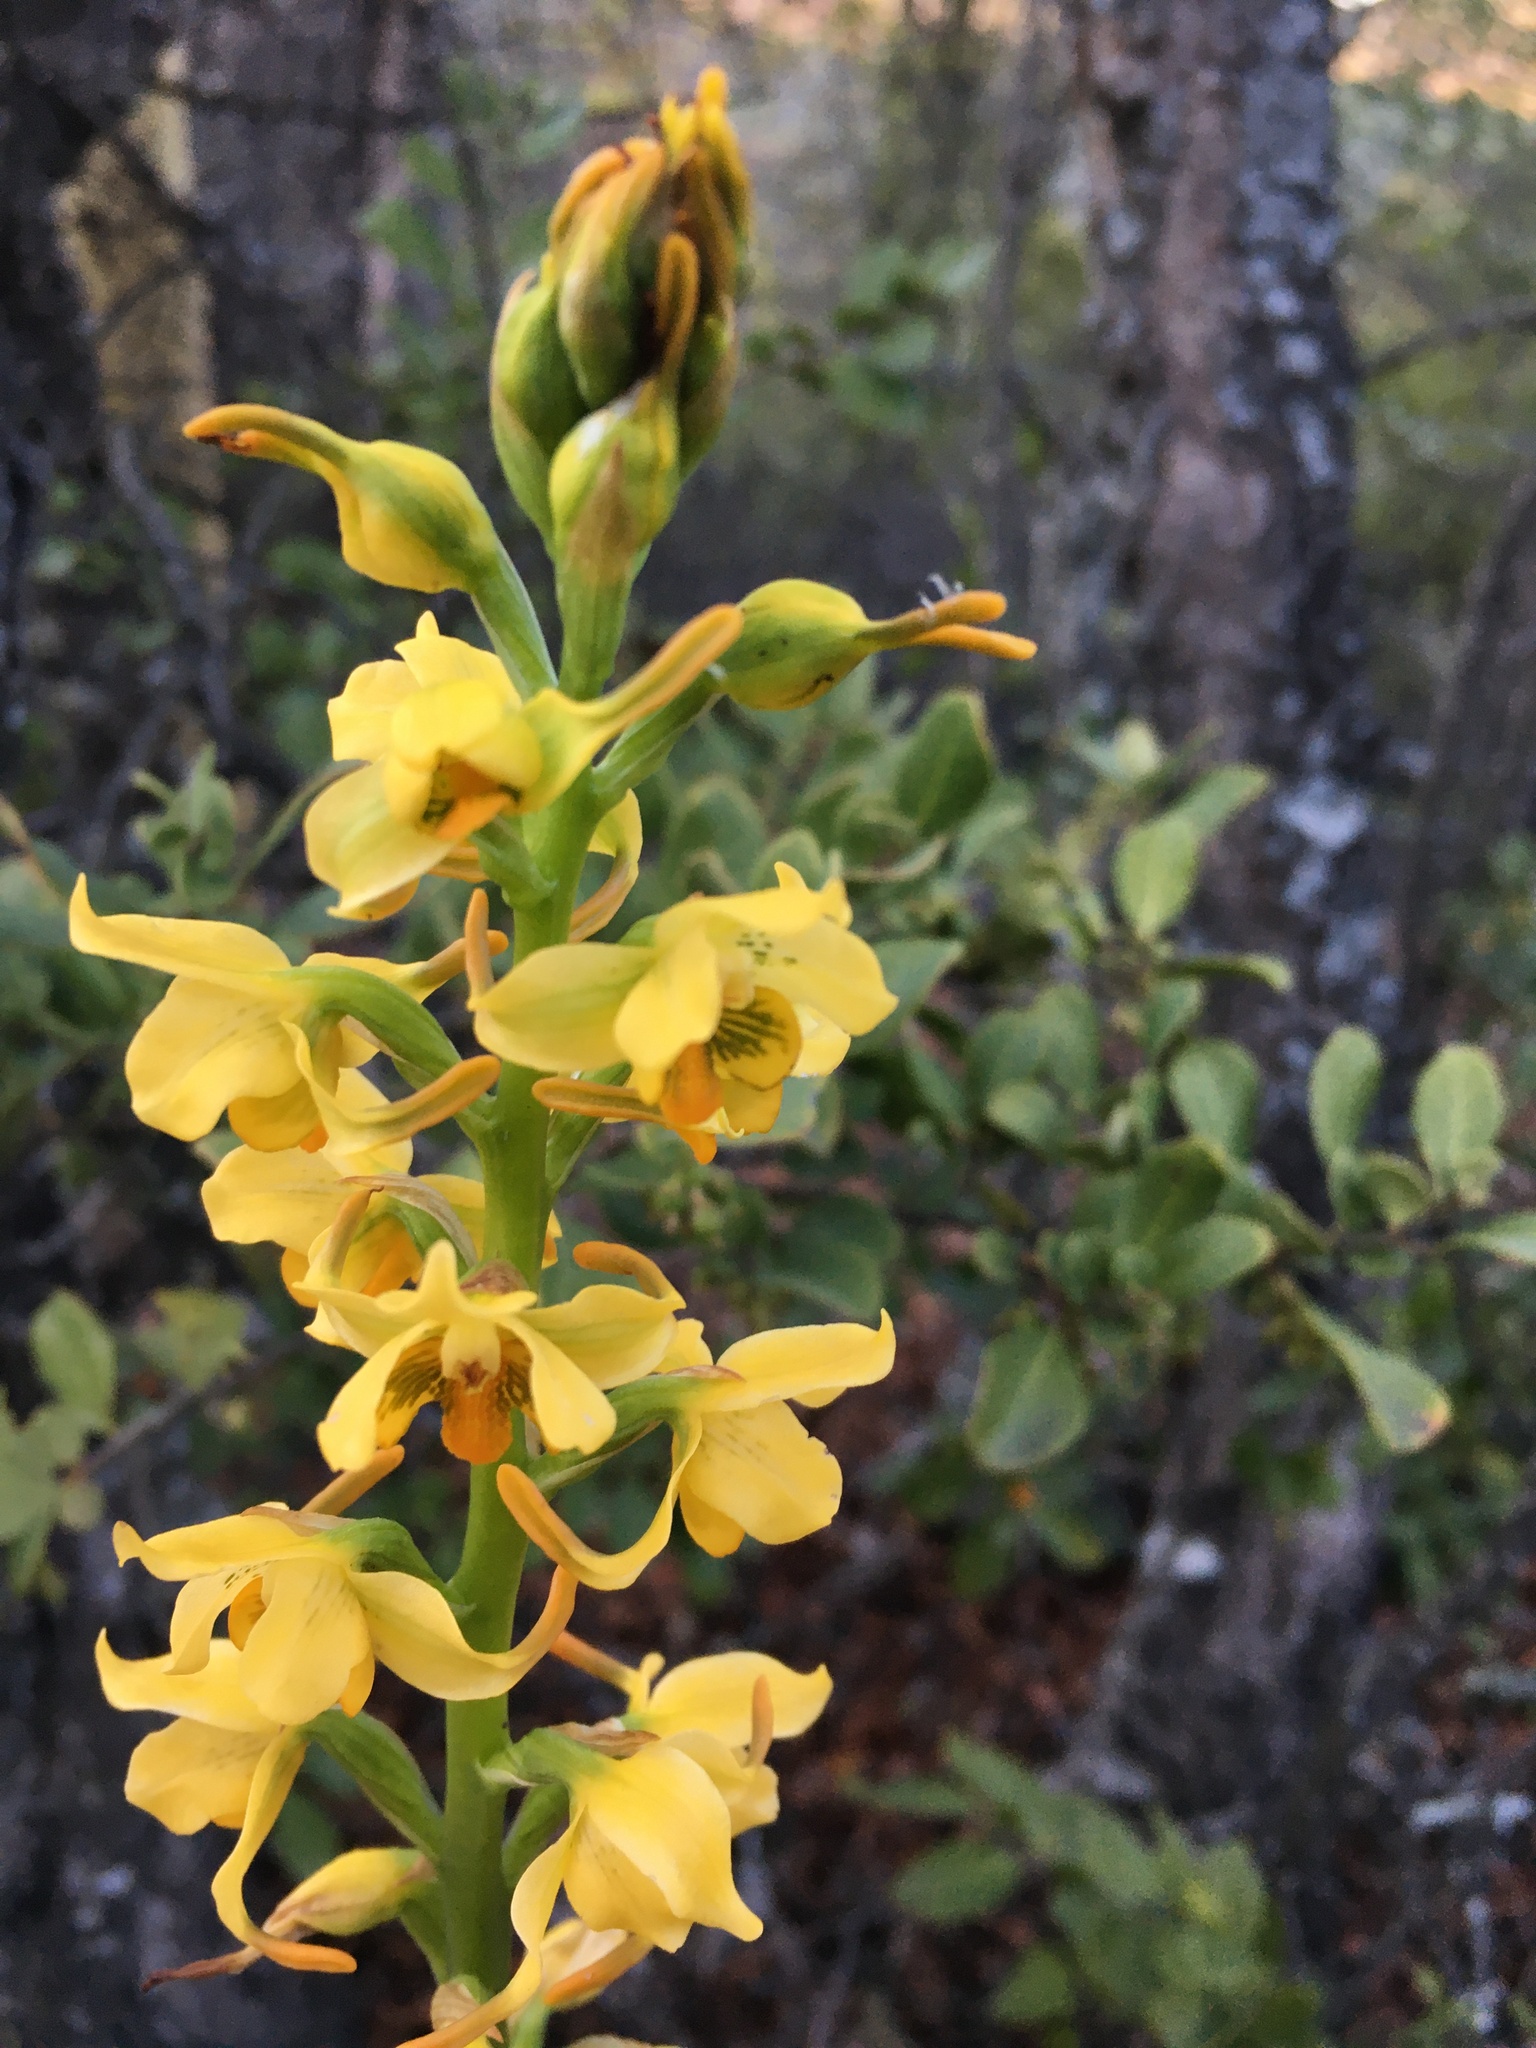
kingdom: Plantae
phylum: Tracheophyta
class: Liliopsida
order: Asparagales
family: Orchidaceae
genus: Gavilea
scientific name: Gavilea odoratissima
